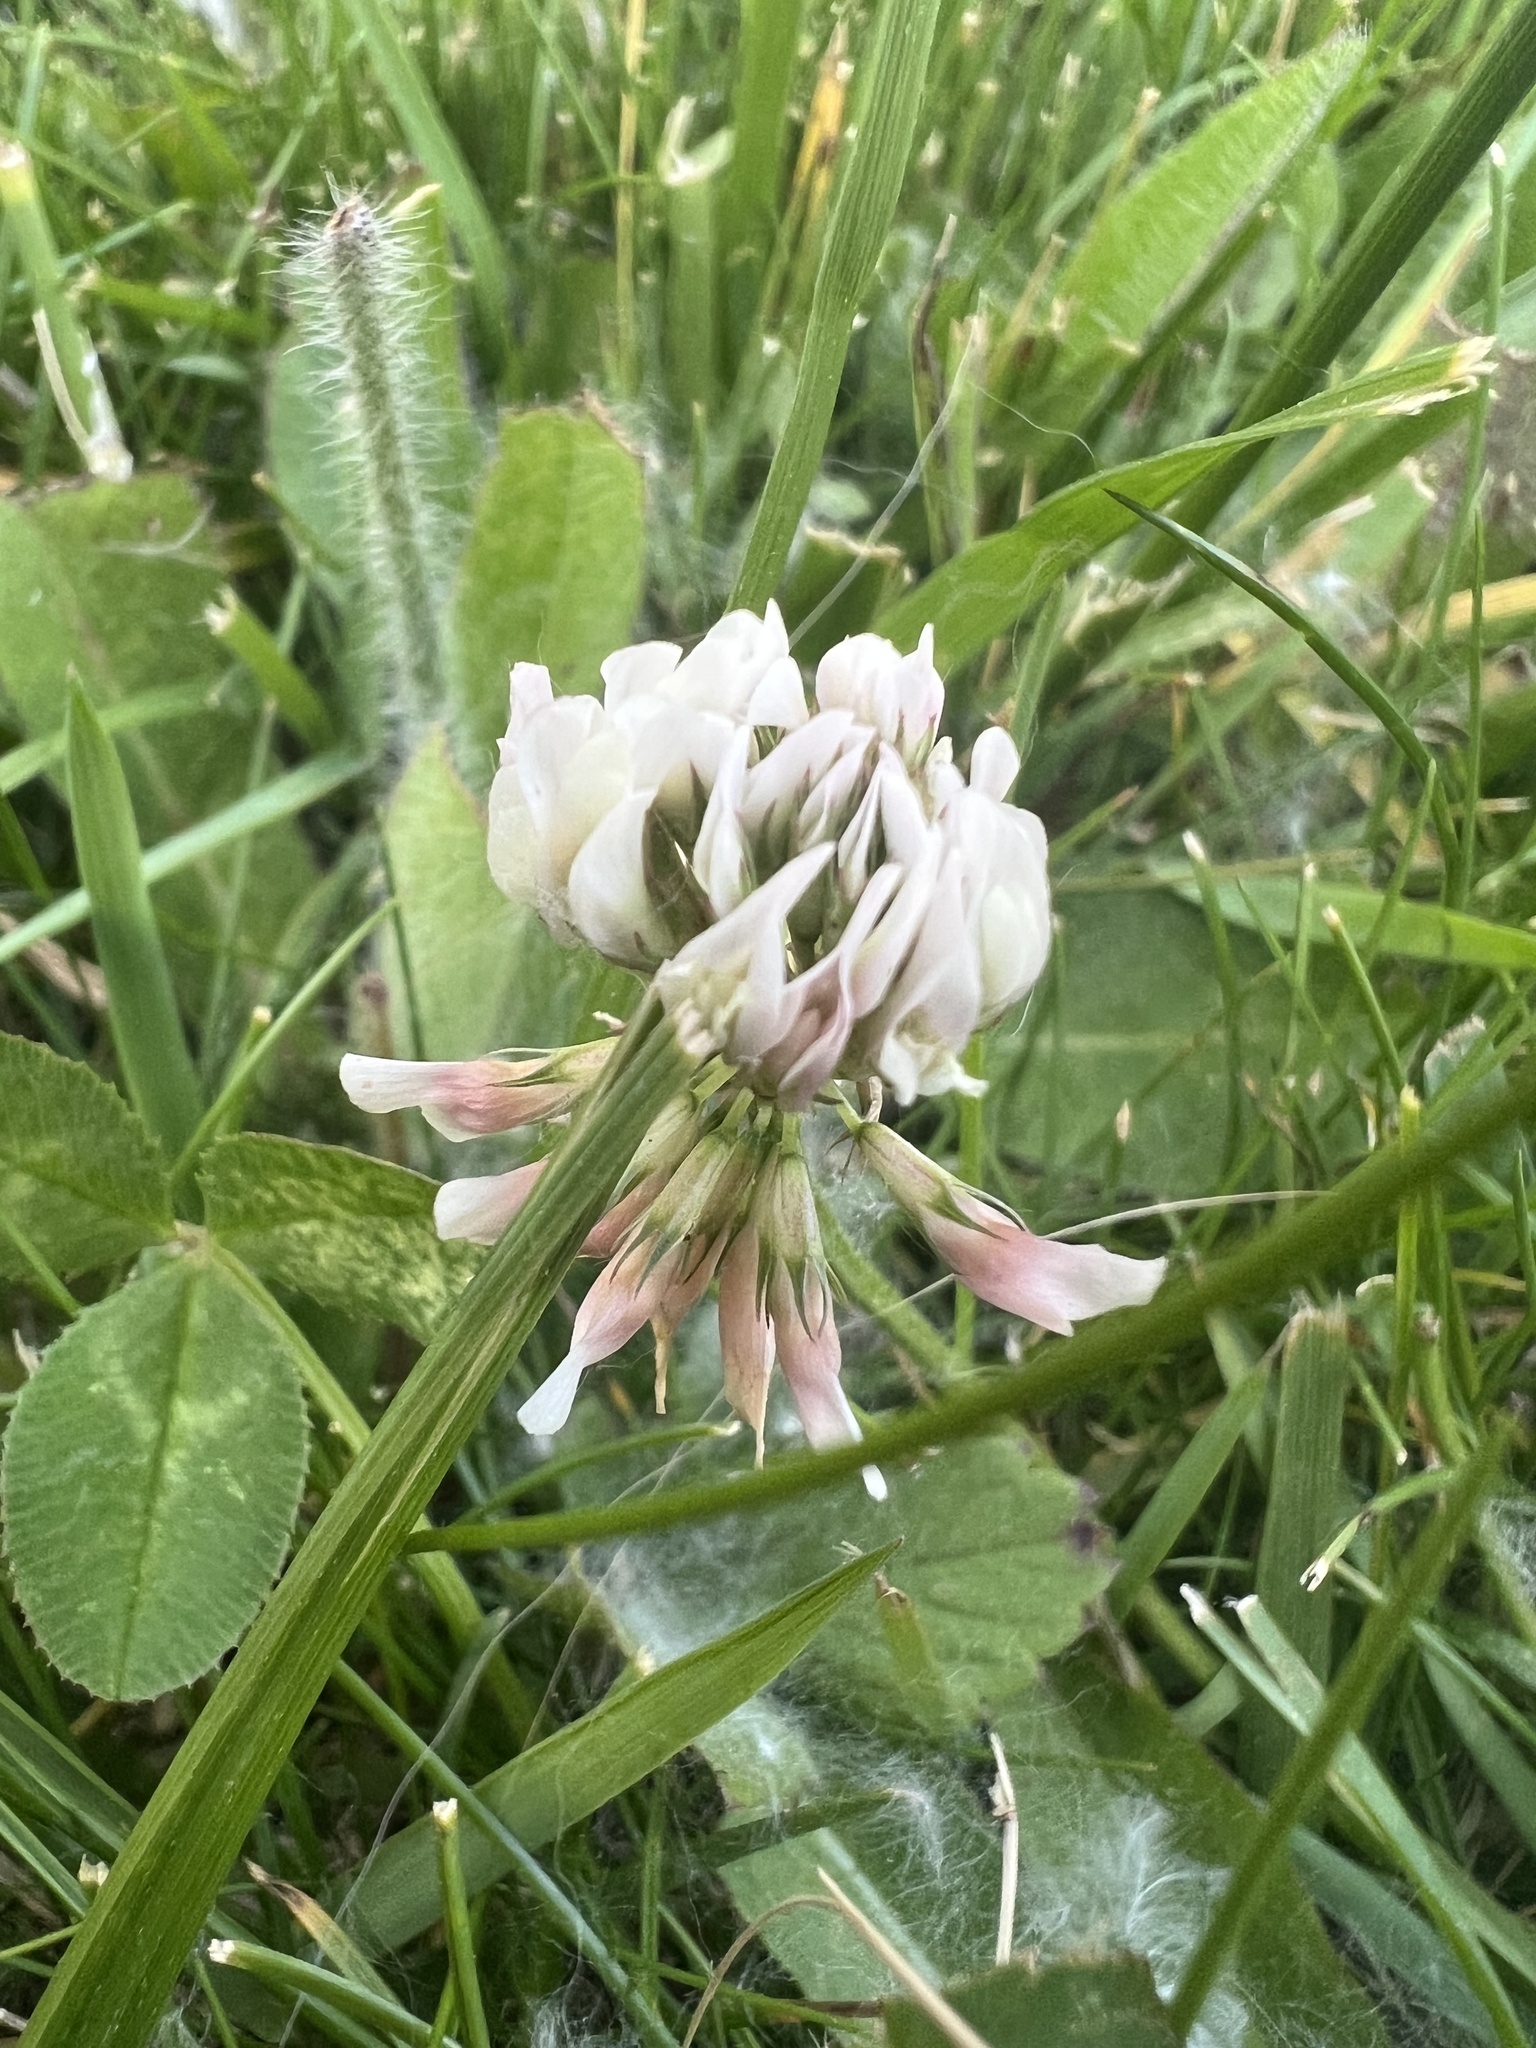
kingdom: Plantae
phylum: Tracheophyta
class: Magnoliopsida
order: Fabales
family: Fabaceae
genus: Trifolium
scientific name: Trifolium repens
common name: White clover
